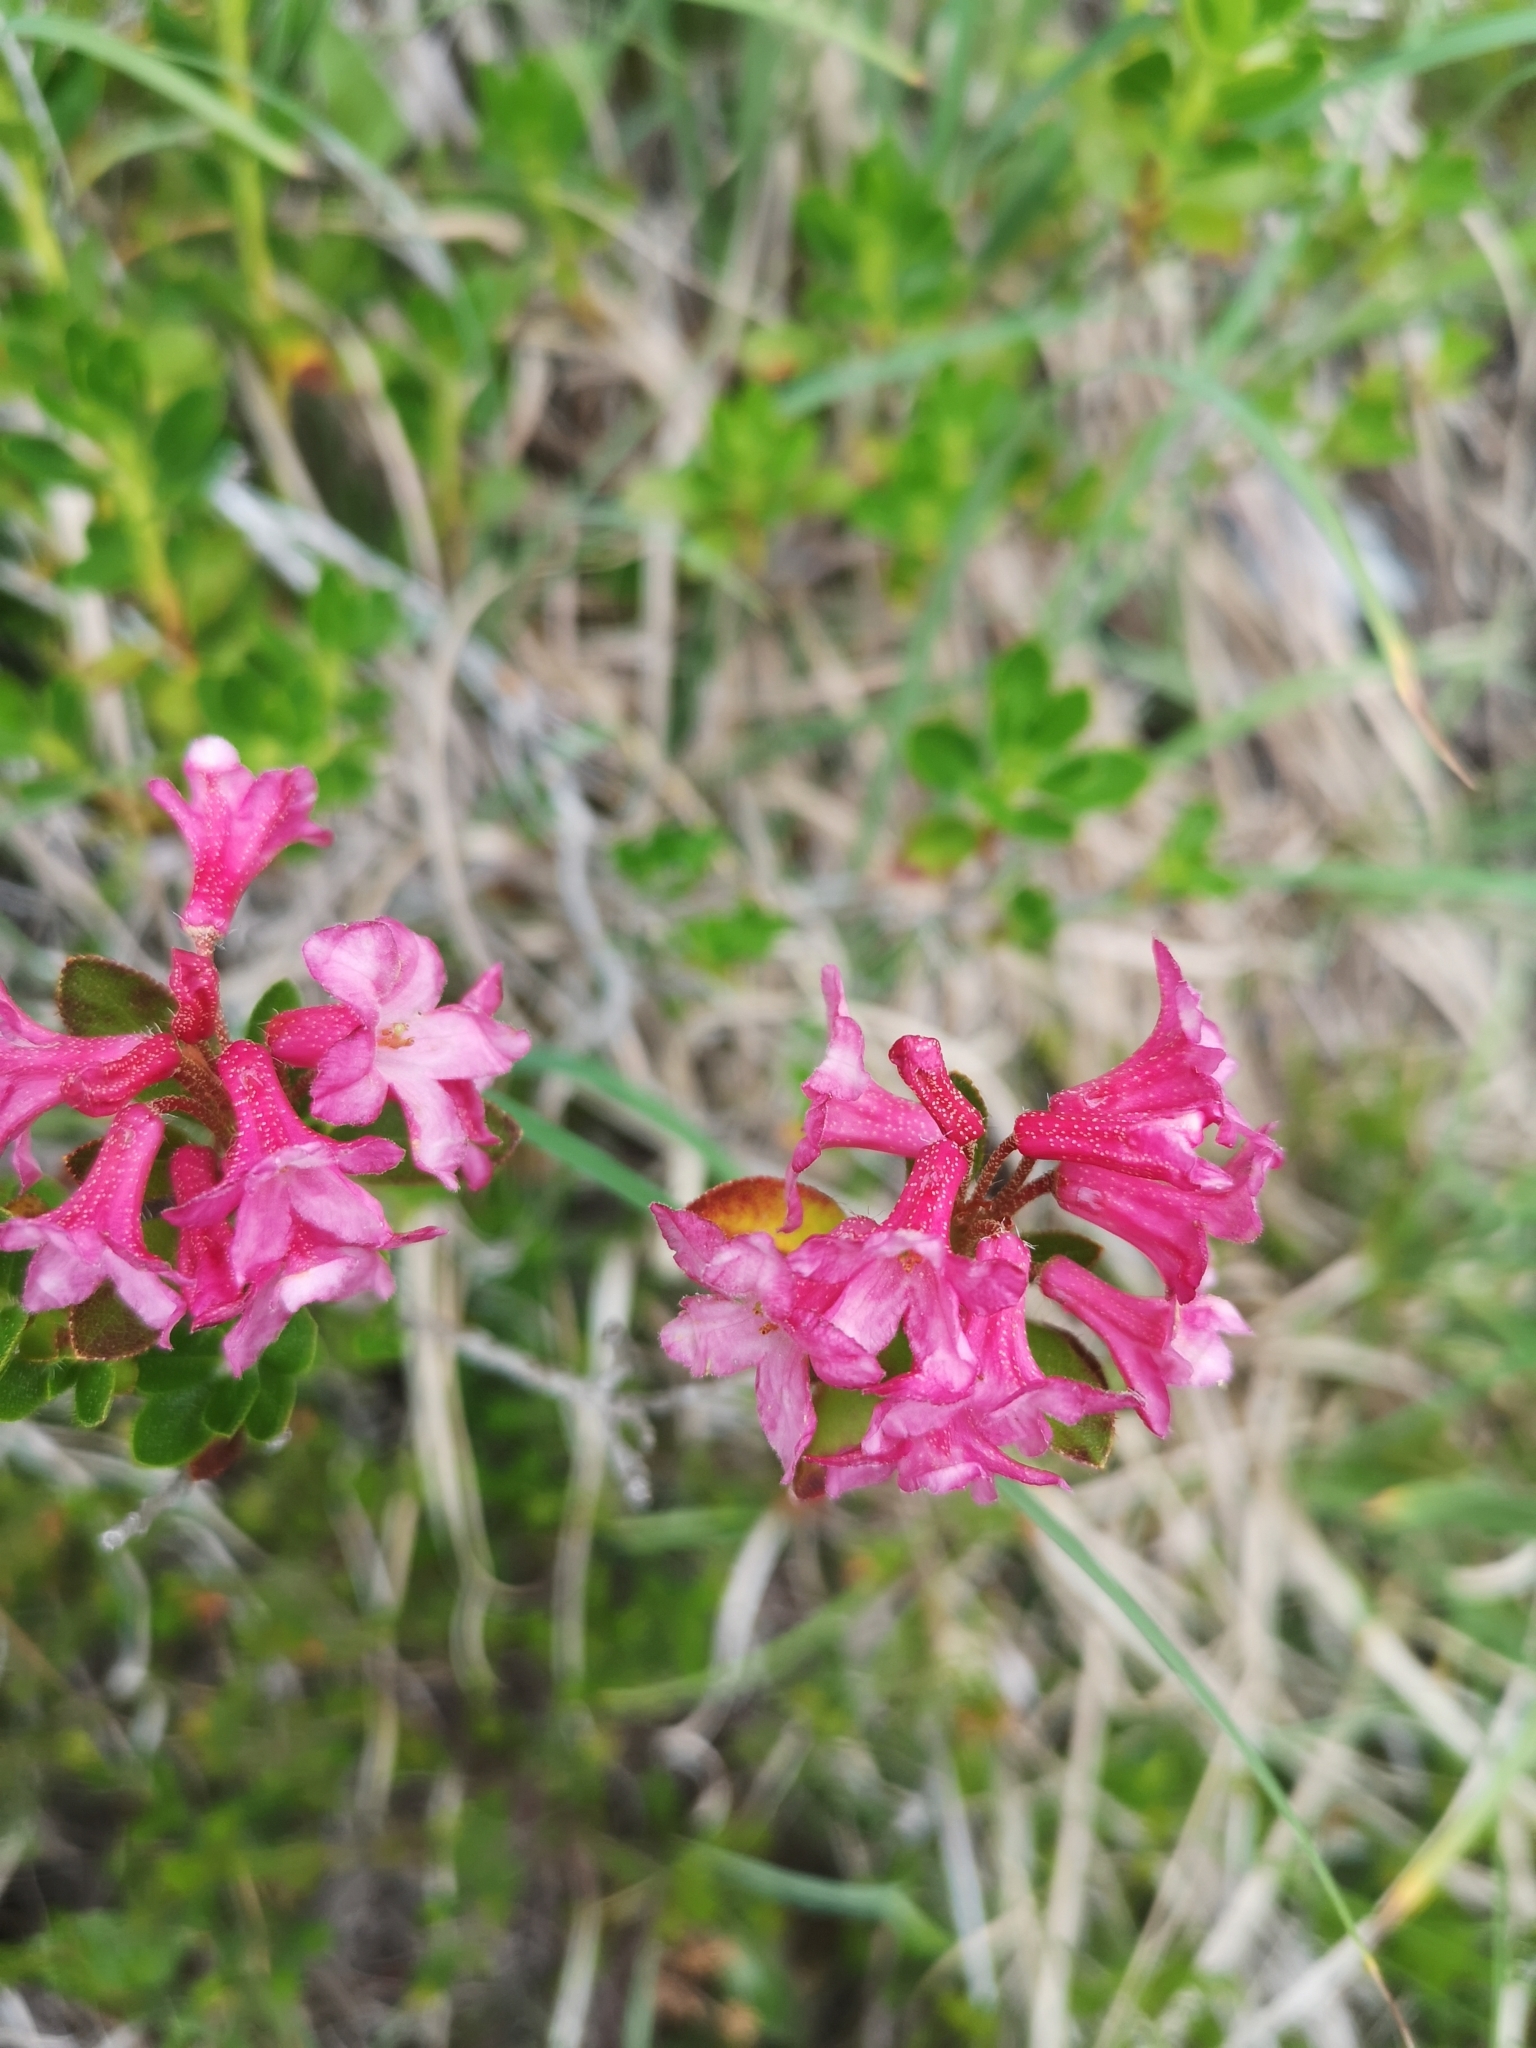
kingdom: Plantae
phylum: Tracheophyta
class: Magnoliopsida
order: Ericales
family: Ericaceae
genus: Rhododendron
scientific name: Rhododendron hirsutum
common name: Hairy alpenrose
